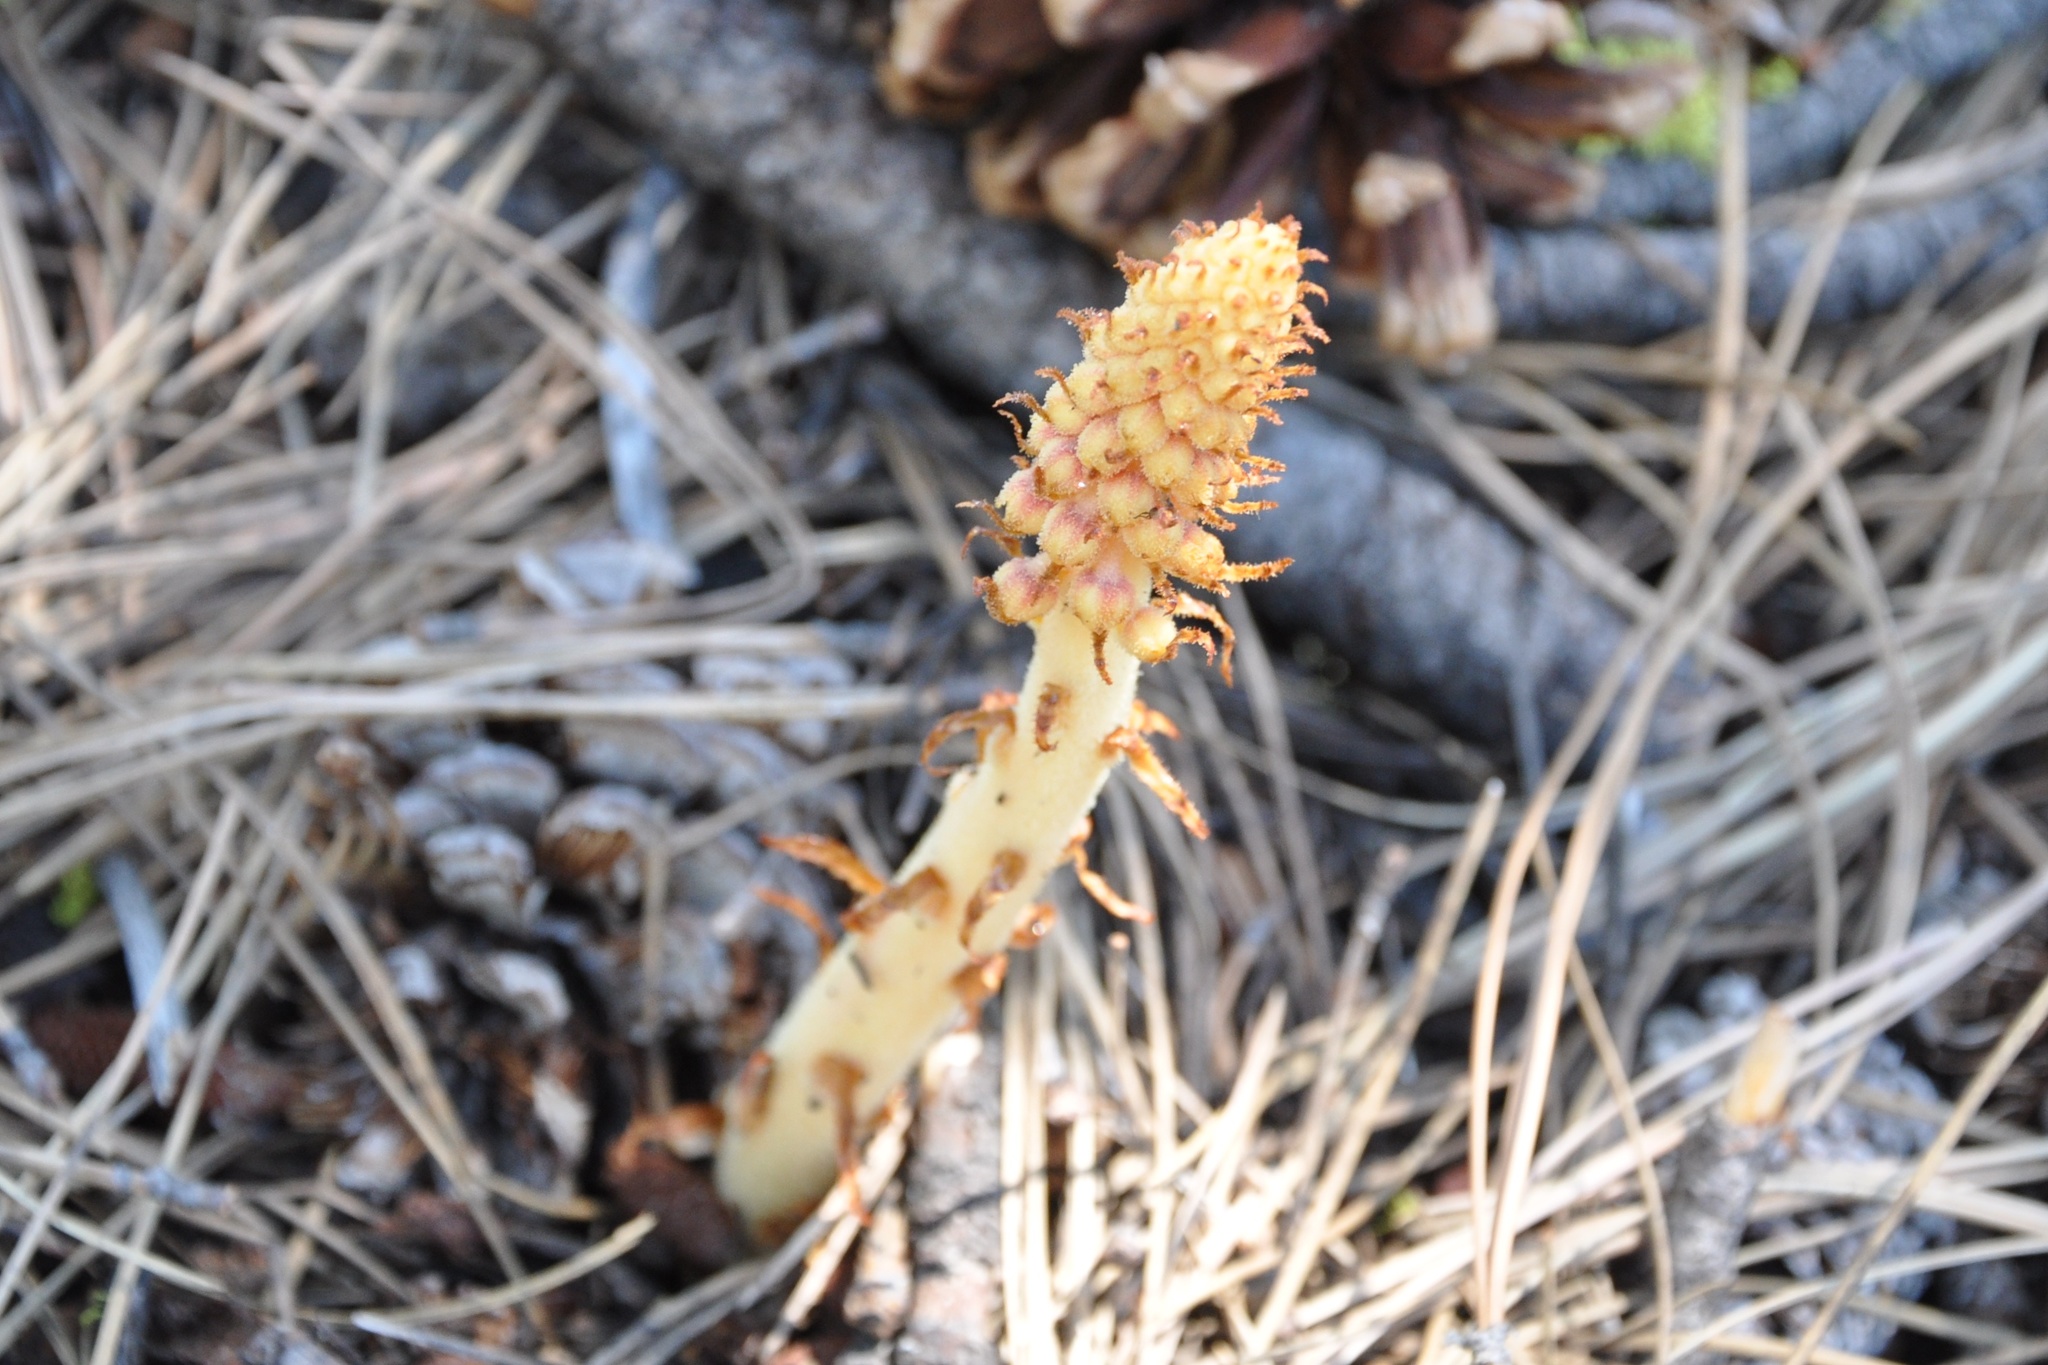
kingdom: Plantae
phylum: Tracheophyta
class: Magnoliopsida
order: Ericales
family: Ericaceae
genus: Pterospora
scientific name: Pterospora andromedea
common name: Giant bird's-nest
